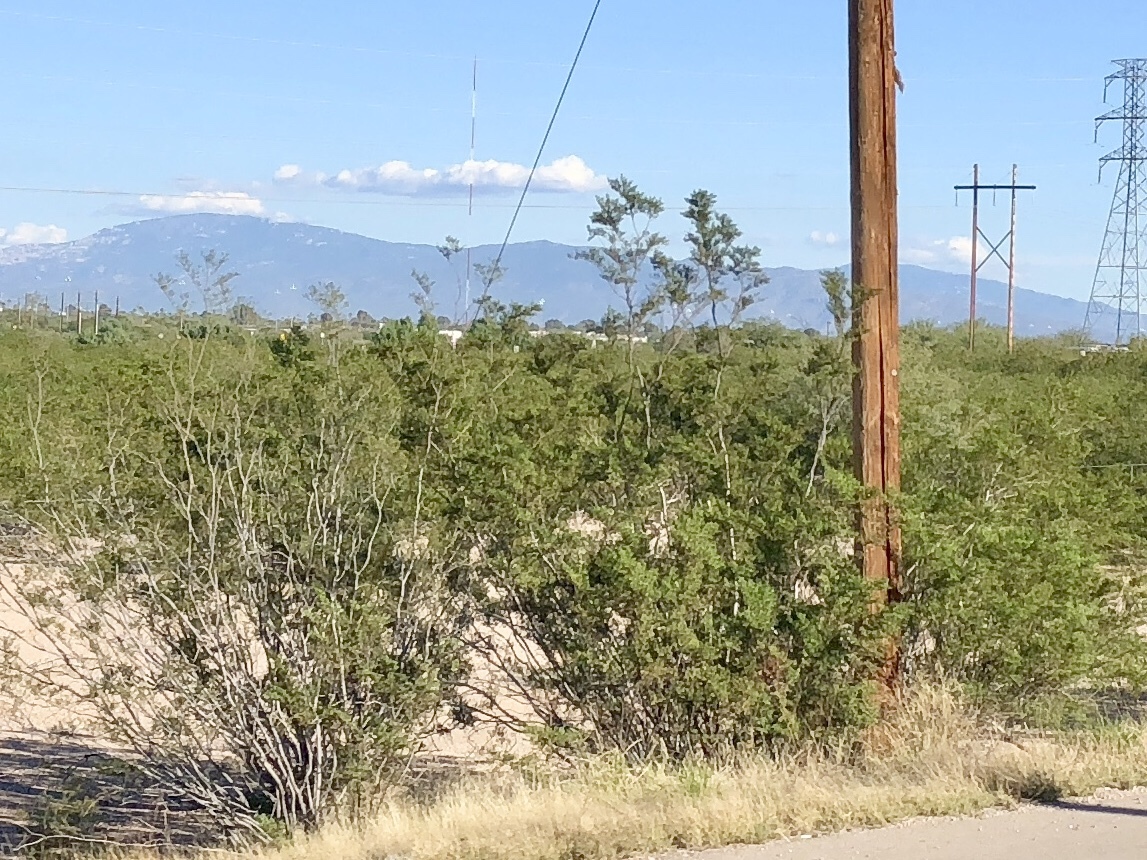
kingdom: Plantae
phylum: Tracheophyta
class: Magnoliopsida
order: Zygophyllales
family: Zygophyllaceae
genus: Larrea
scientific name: Larrea tridentata
